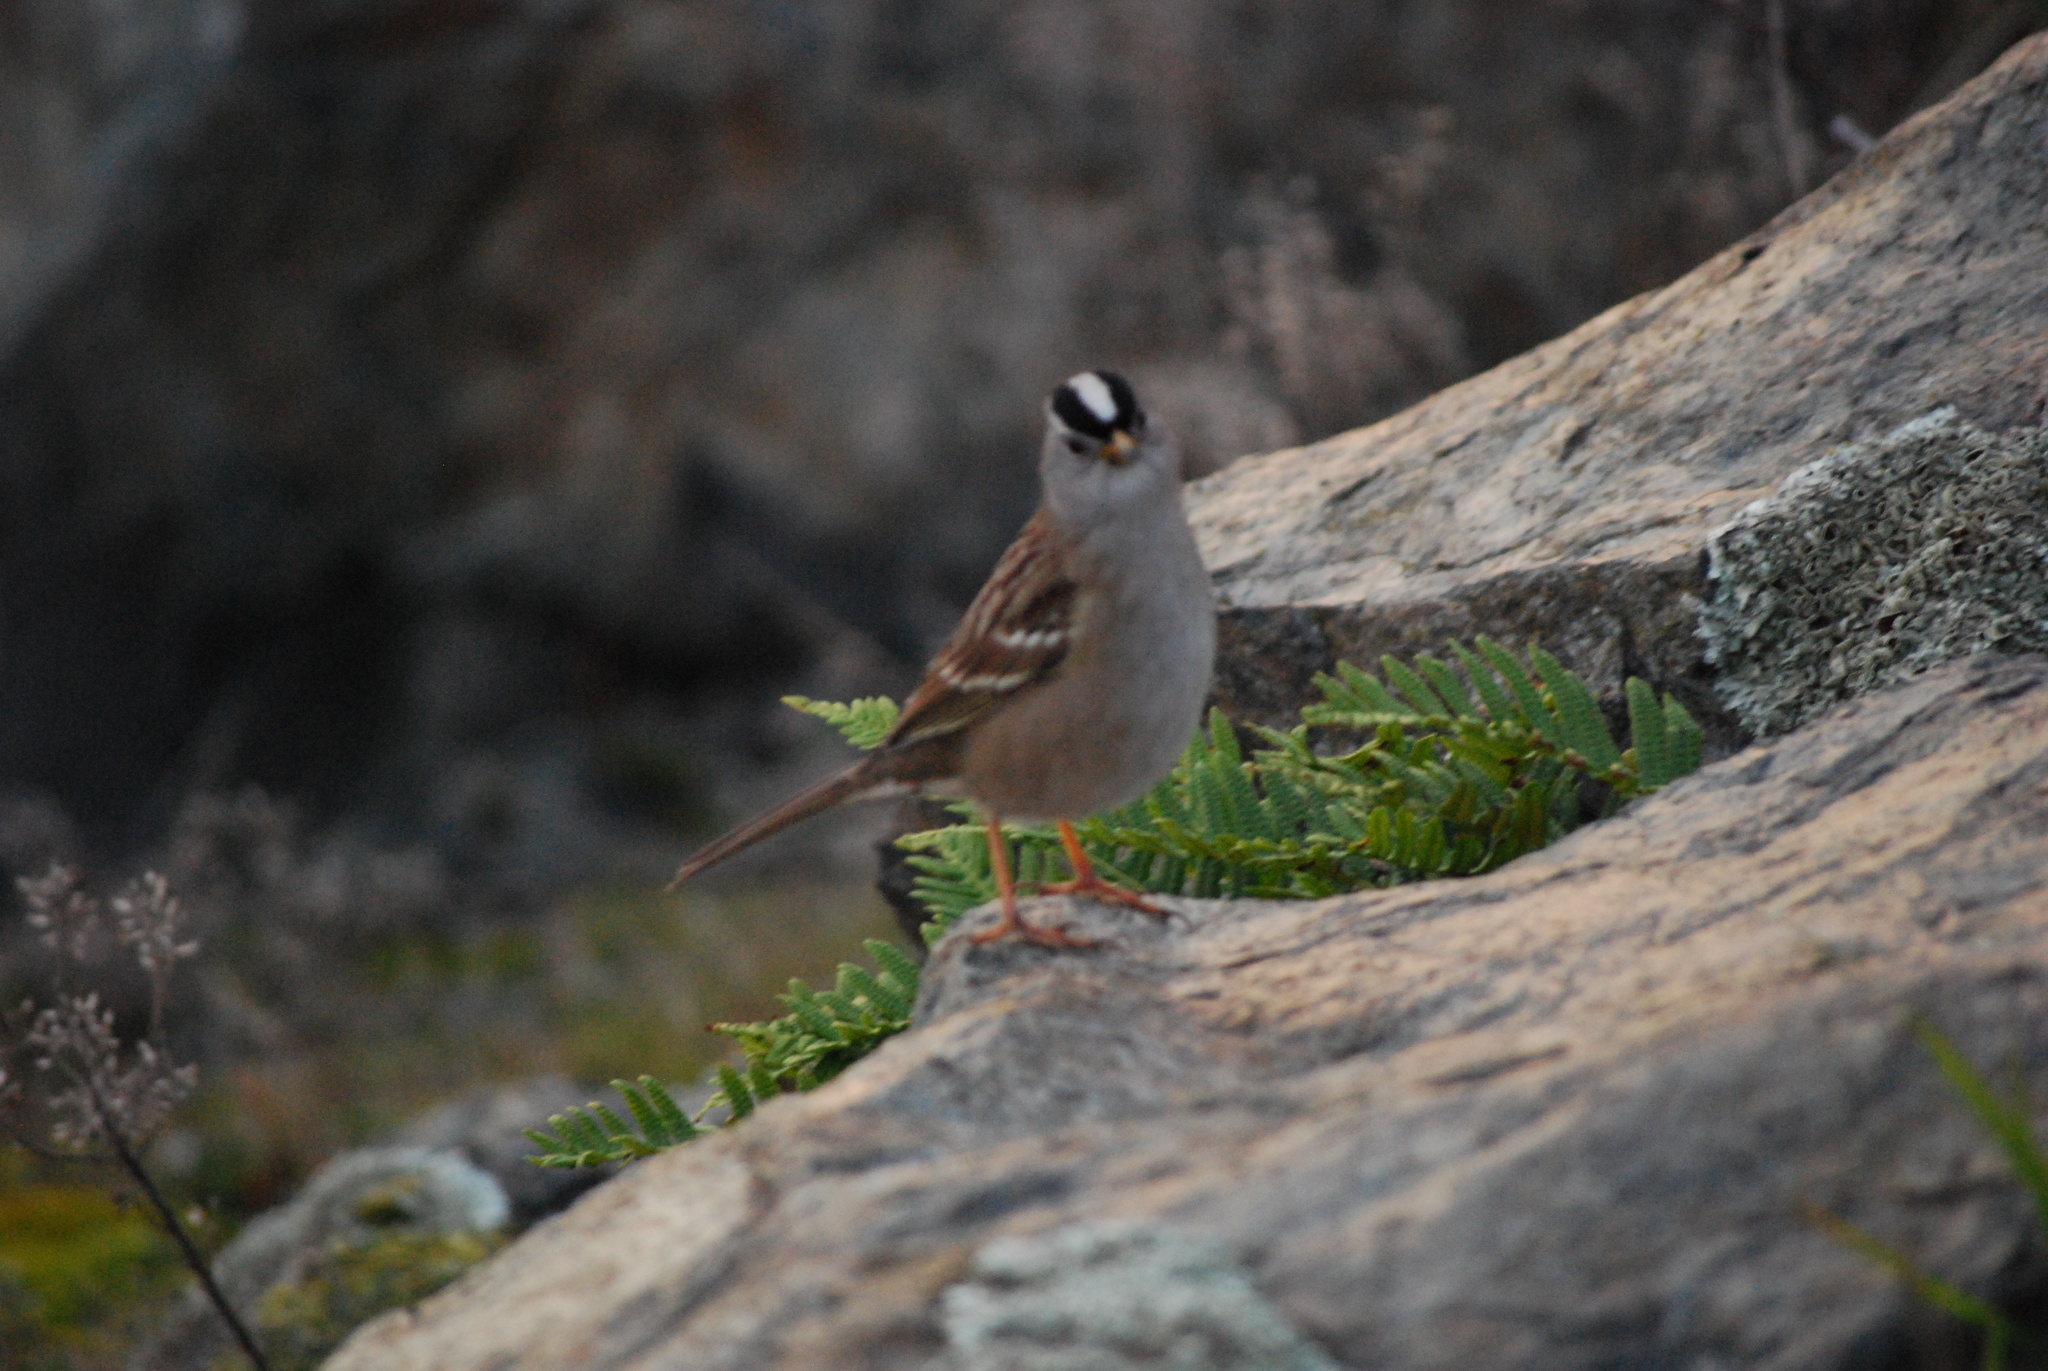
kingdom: Animalia
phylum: Chordata
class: Aves
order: Passeriformes
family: Passerellidae
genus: Zonotrichia
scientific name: Zonotrichia leucophrys
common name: White-crowned sparrow
